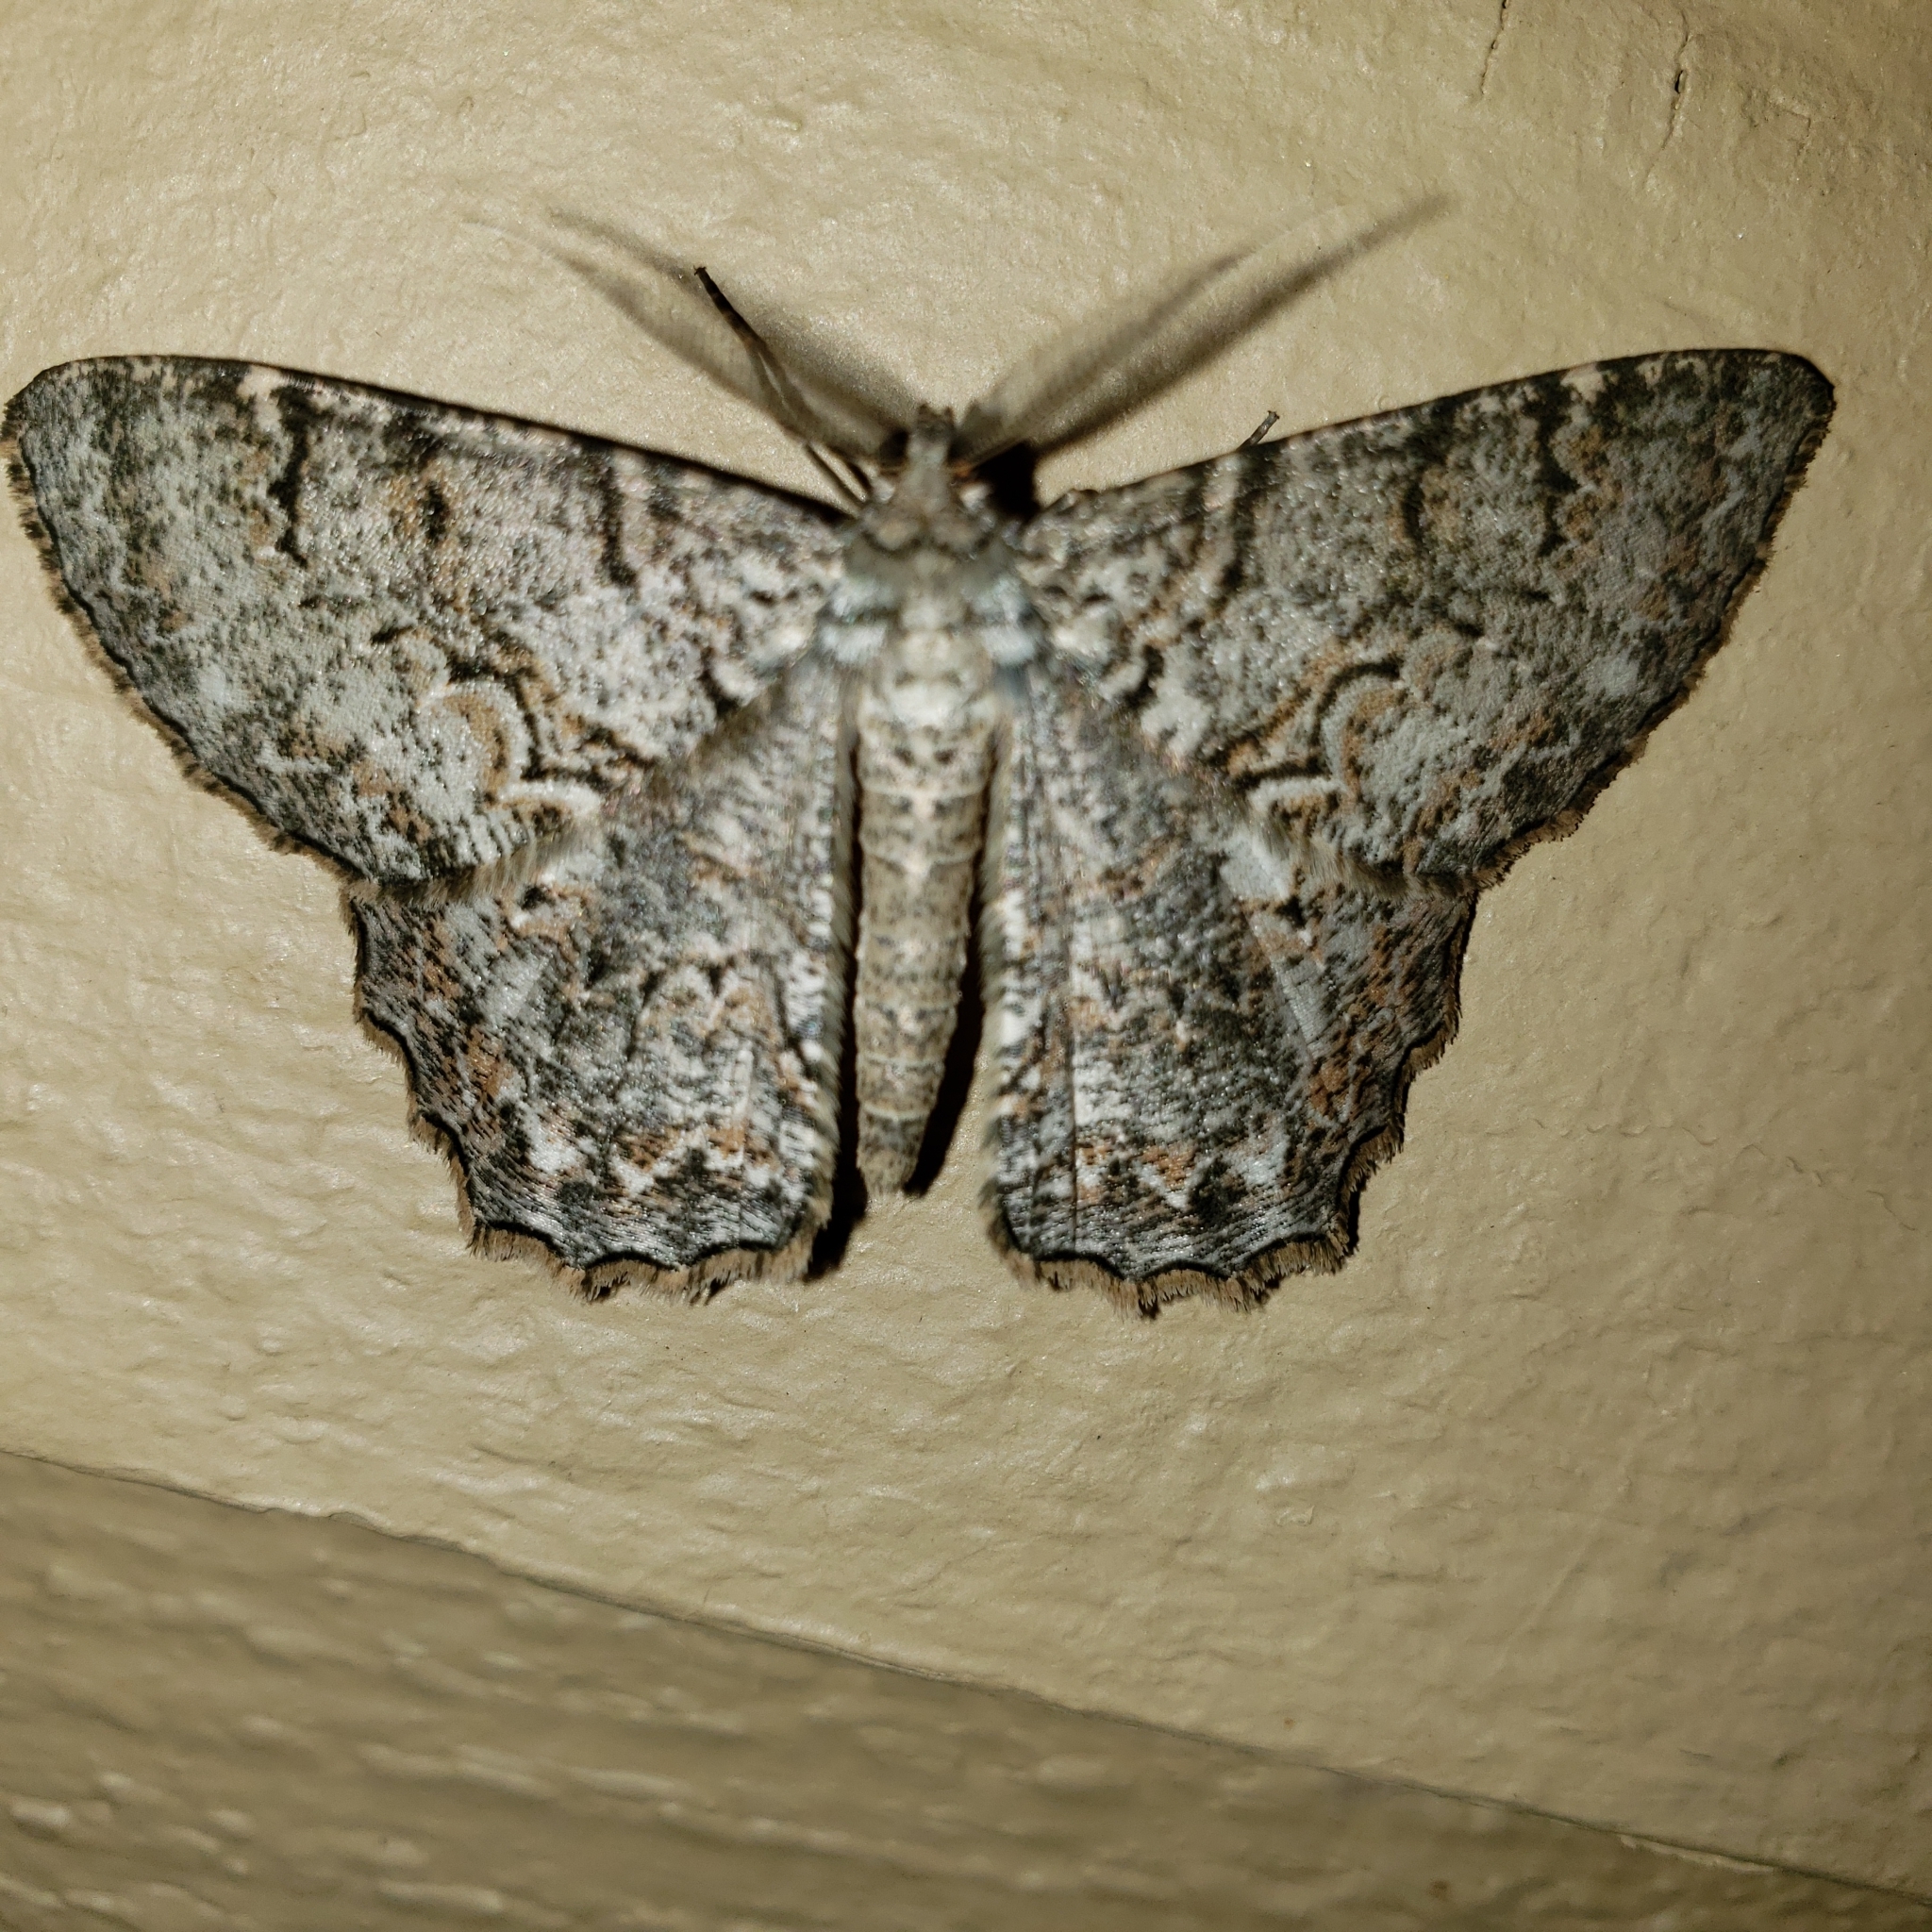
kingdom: Animalia
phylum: Arthropoda
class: Insecta
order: Lepidoptera
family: Geometridae
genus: Epimecis
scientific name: Epimecis hortaria
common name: Tulip-tree beauty
